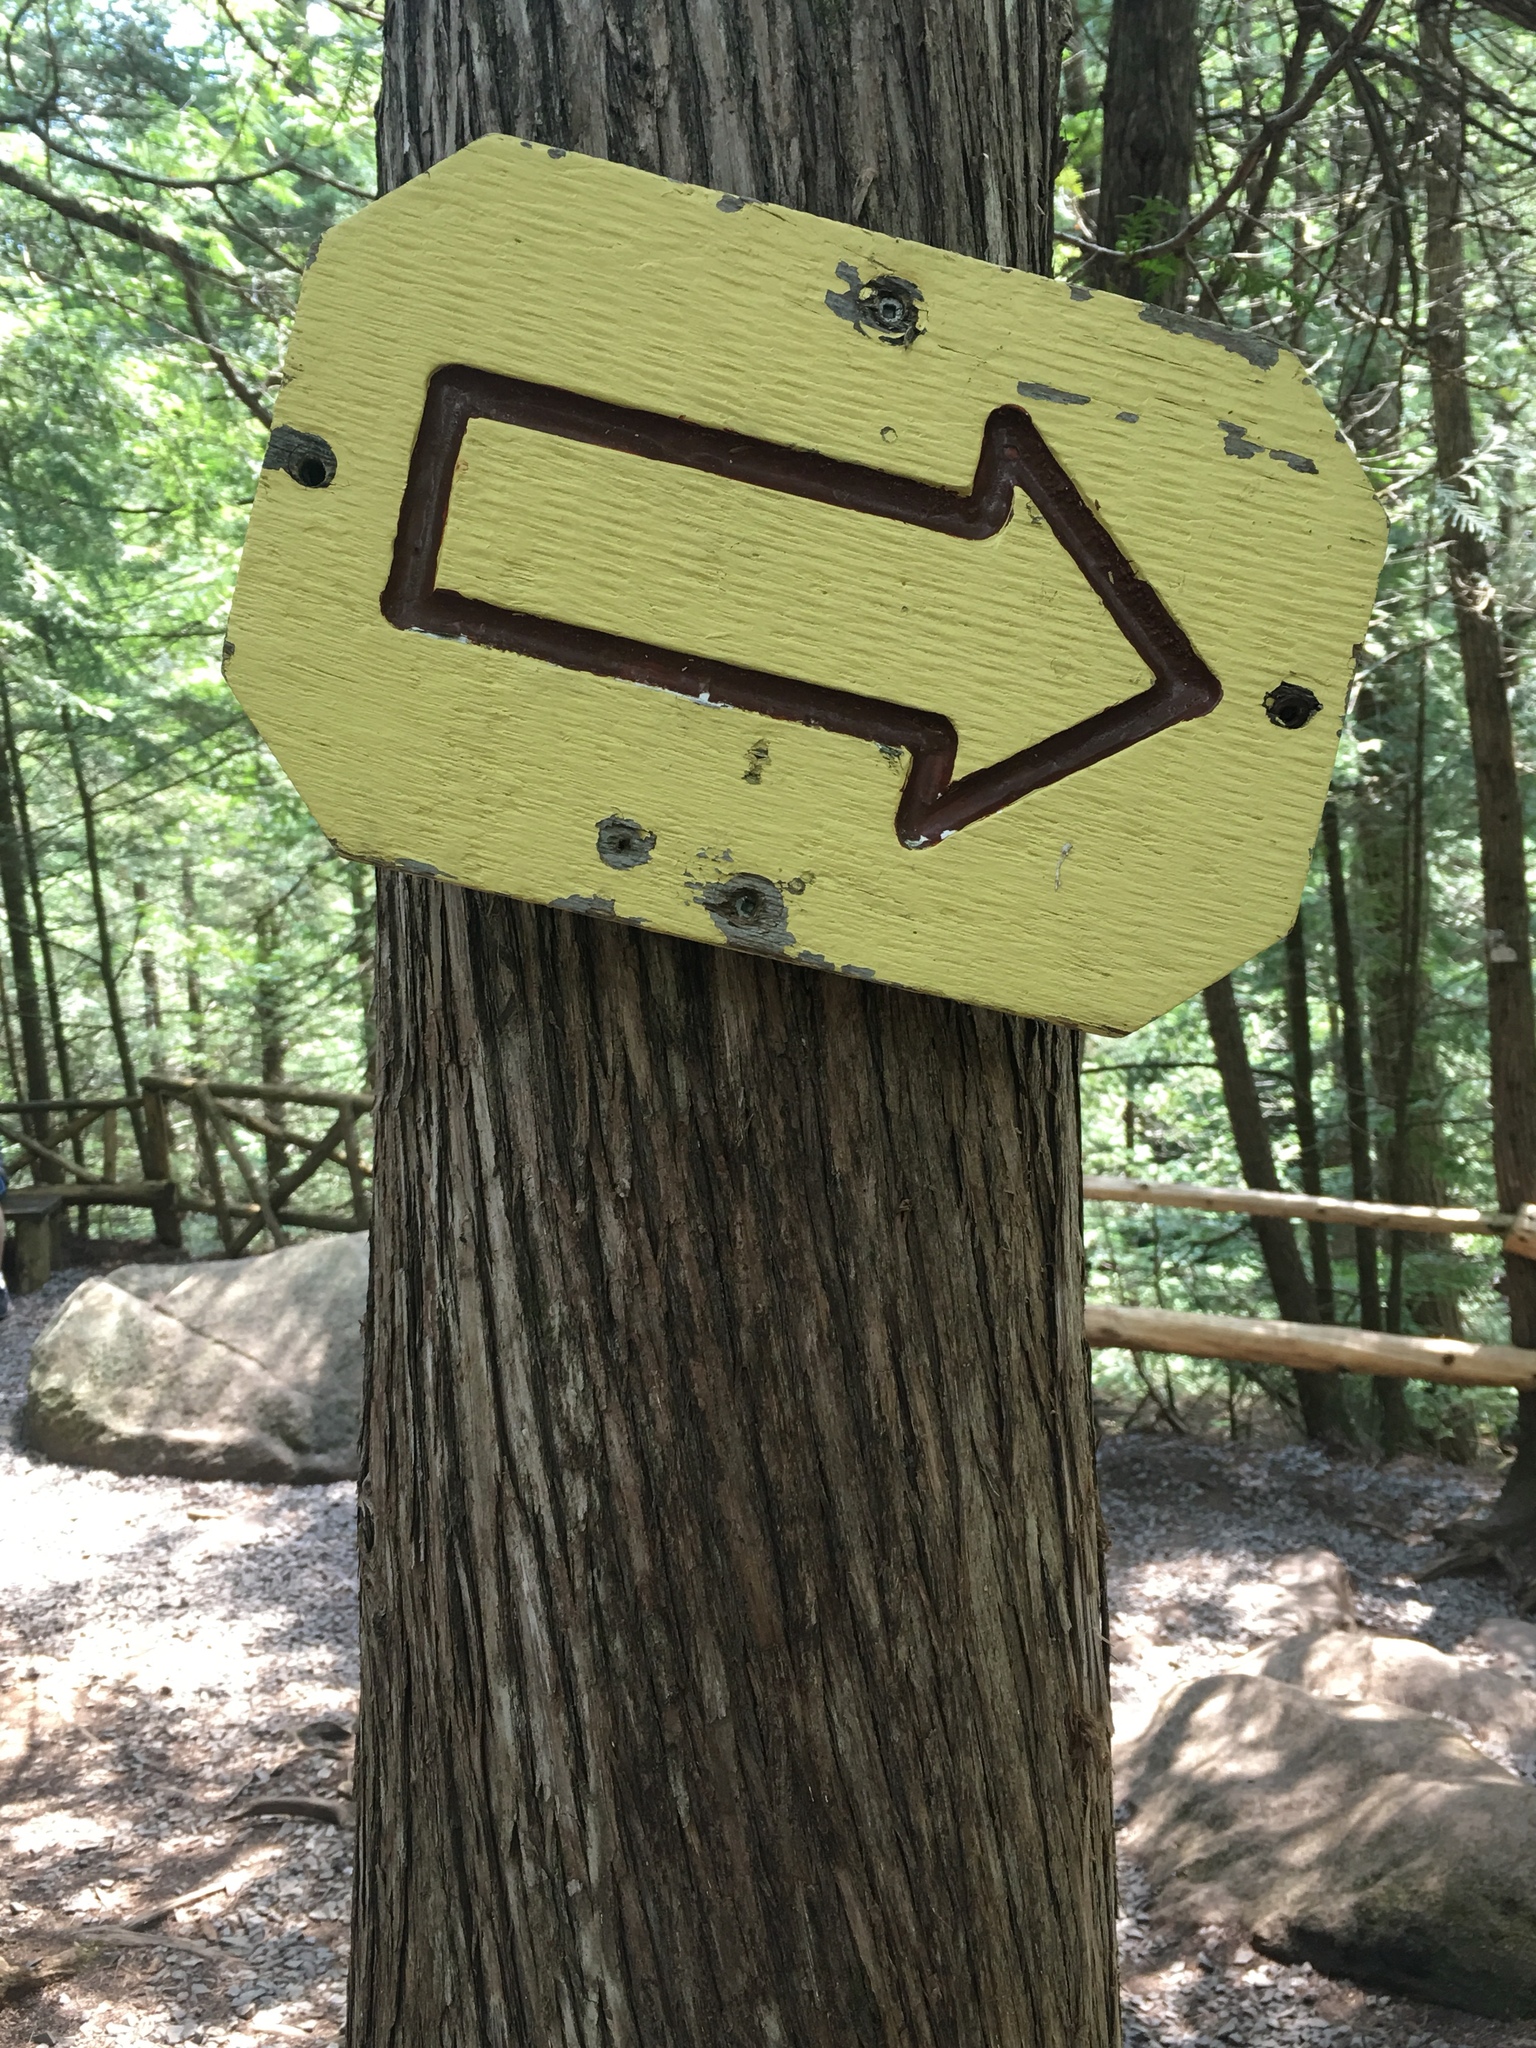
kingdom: Plantae
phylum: Tracheophyta
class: Pinopsida
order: Pinales
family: Cupressaceae
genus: Thuja
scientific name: Thuja occidentalis
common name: Northern white-cedar
